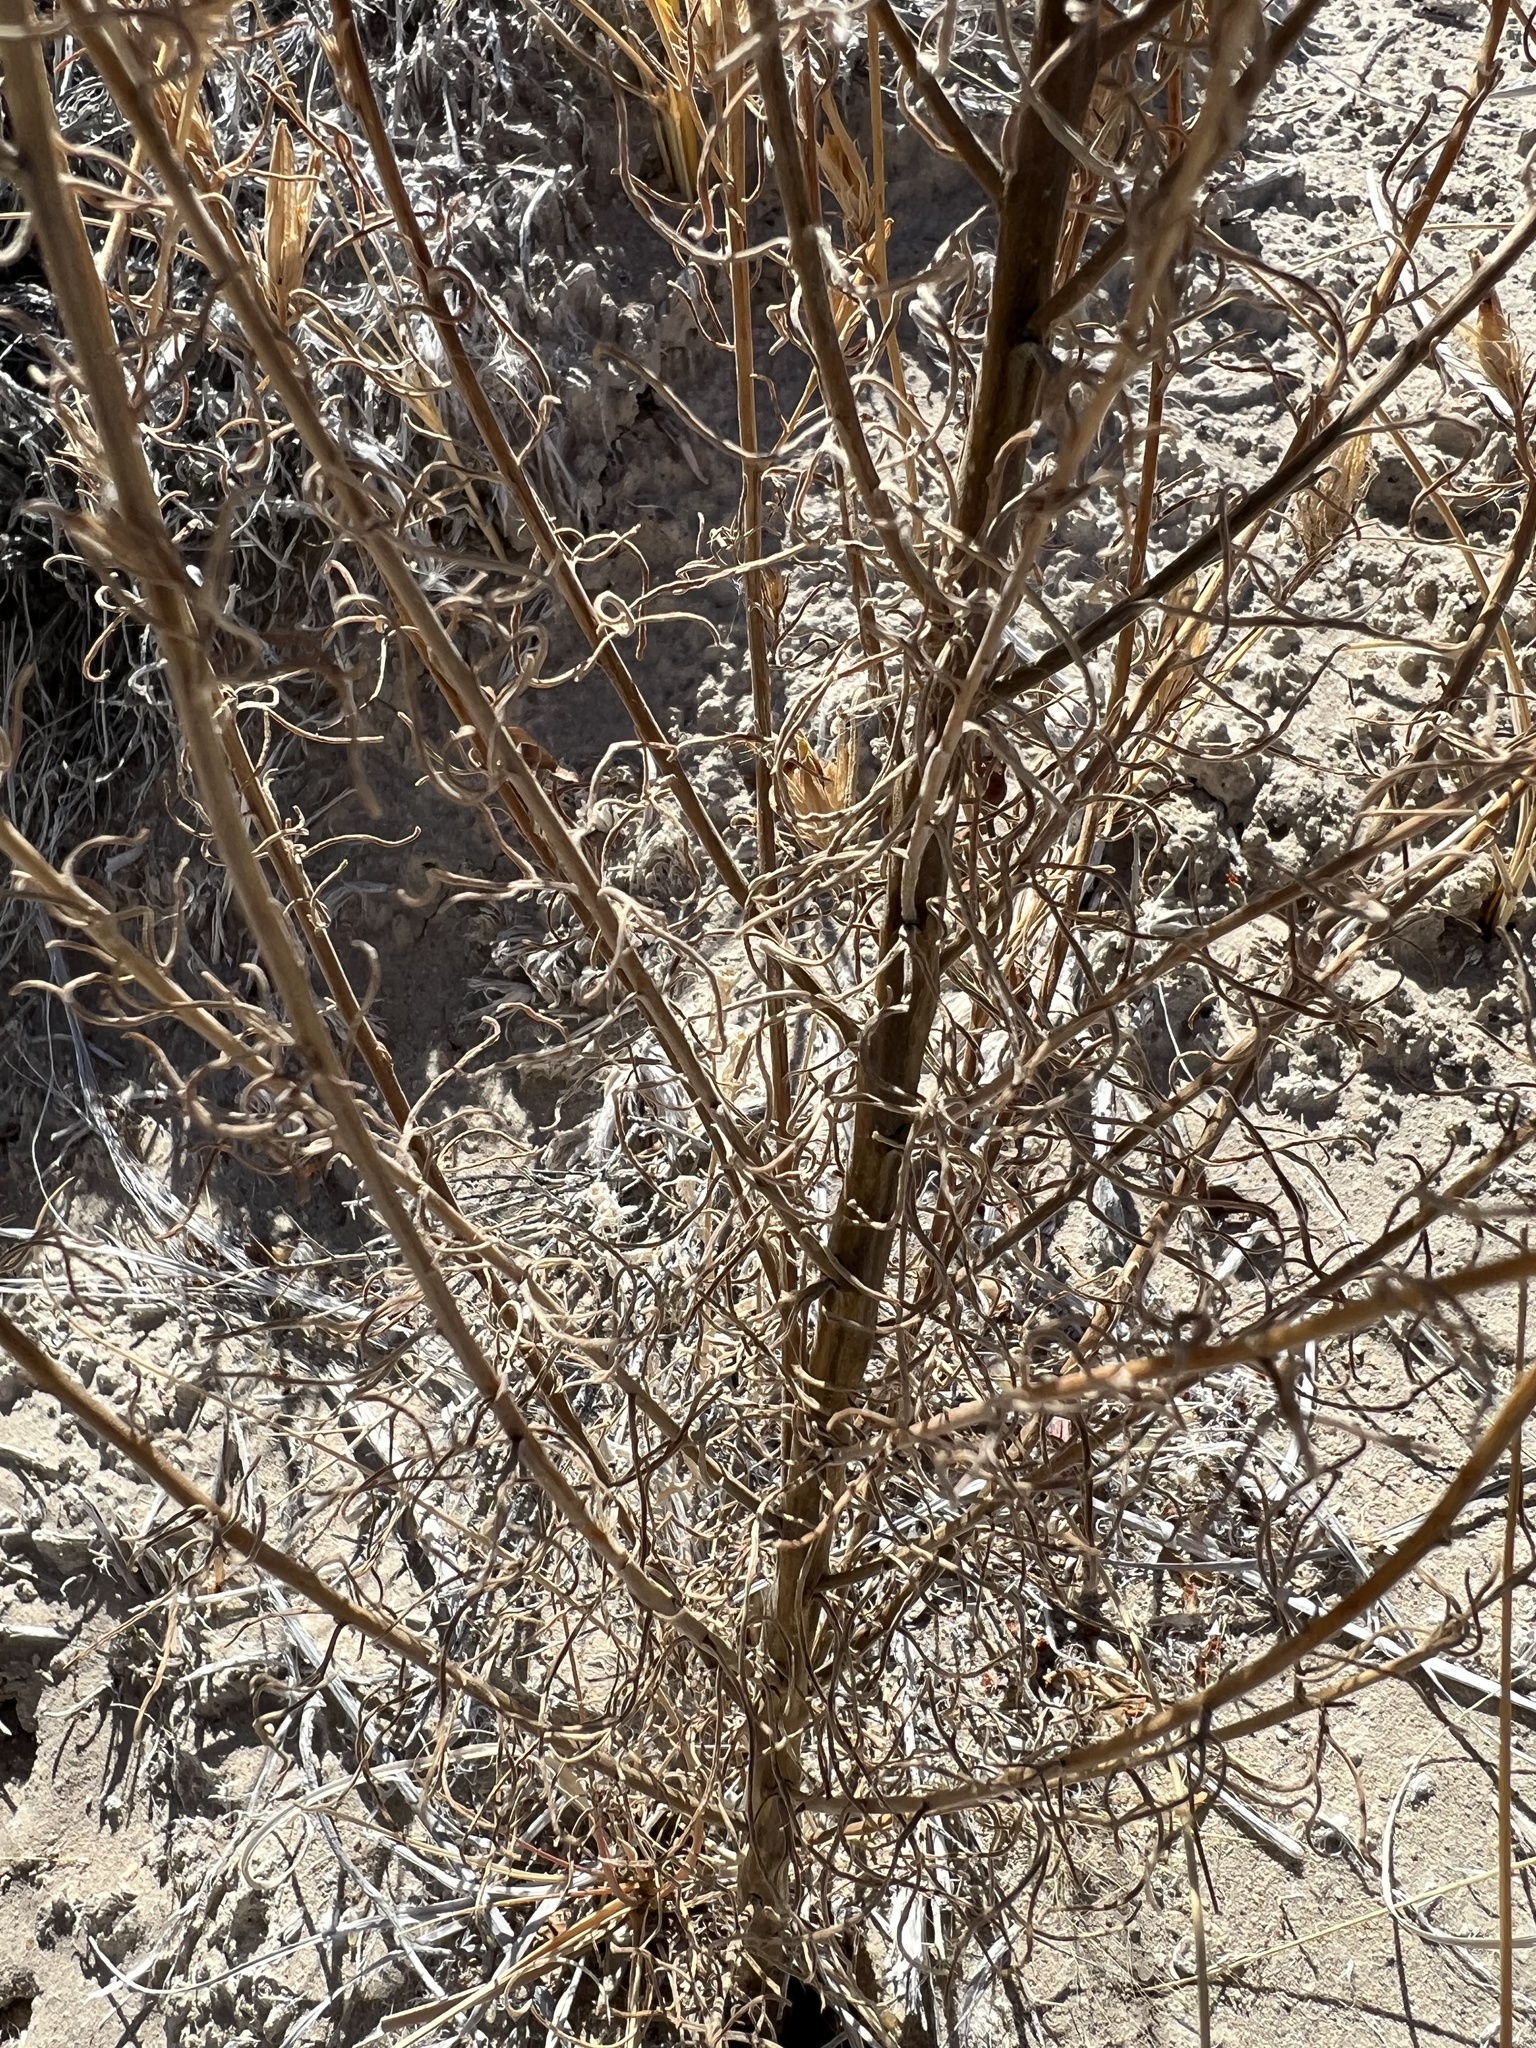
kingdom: Plantae
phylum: Tracheophyta
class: Magnoliopsida
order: Lamiales
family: Orobanchaceae
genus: Cordylanthus
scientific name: Cordylanthus ramosus
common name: Much-branched bird's-beak
